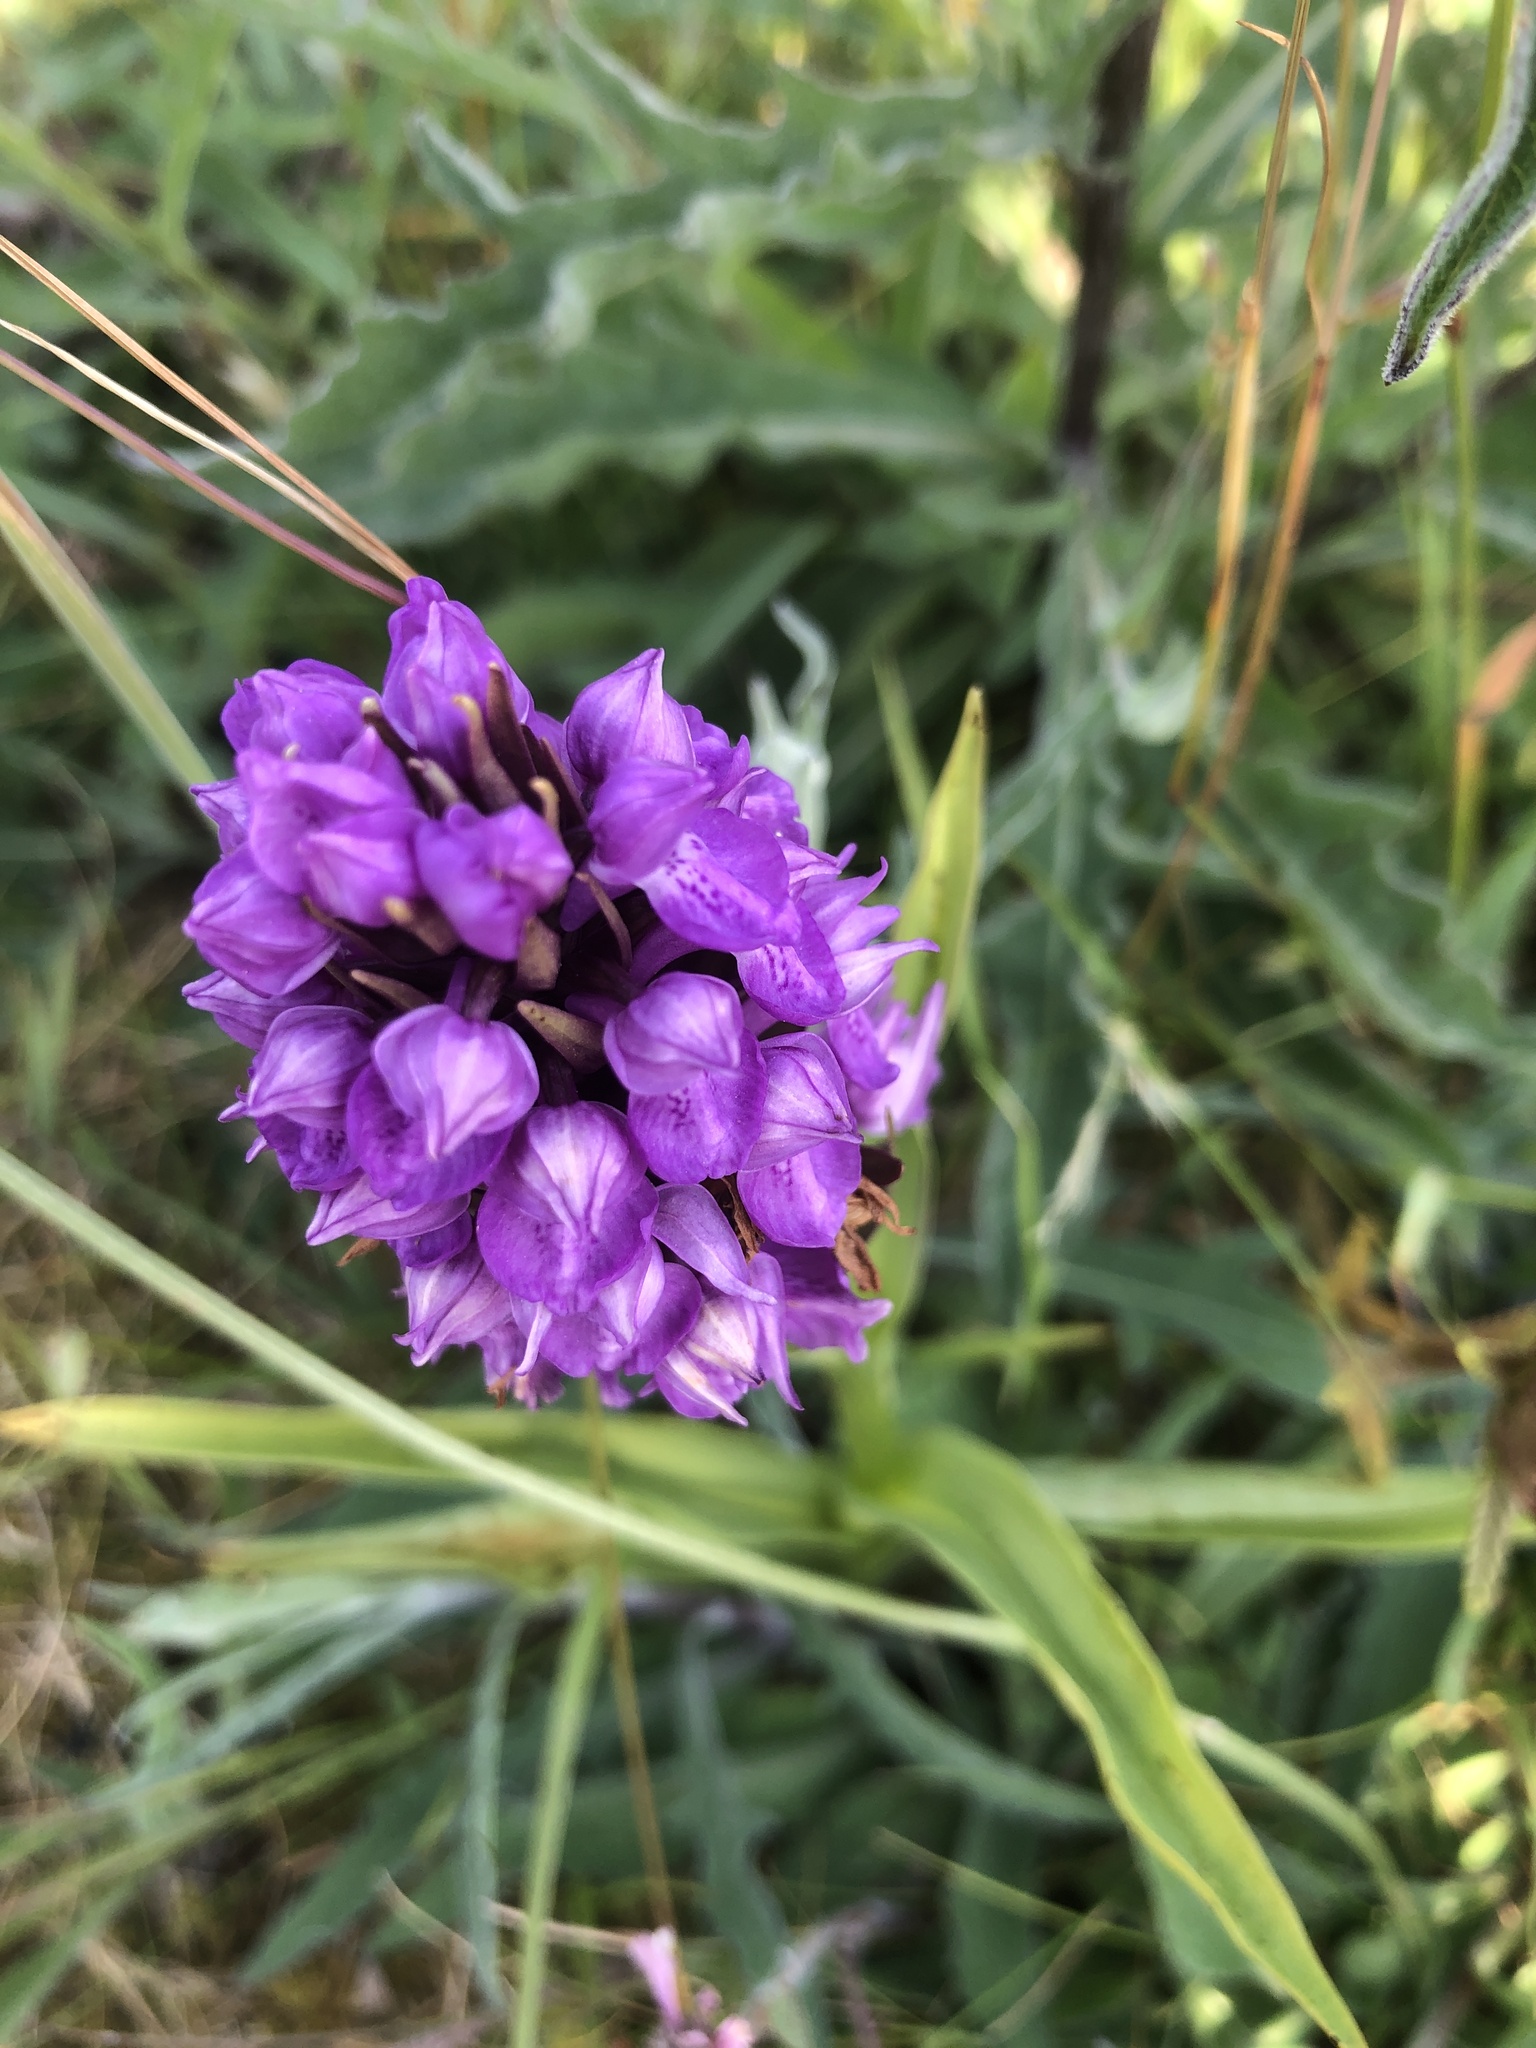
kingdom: Plantae
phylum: Tracheophyta
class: Liliopsida
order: Asparagales
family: Orchidaceae
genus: Dactylorhiza
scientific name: Dactylorhiza majalis
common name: Marsh orchid
